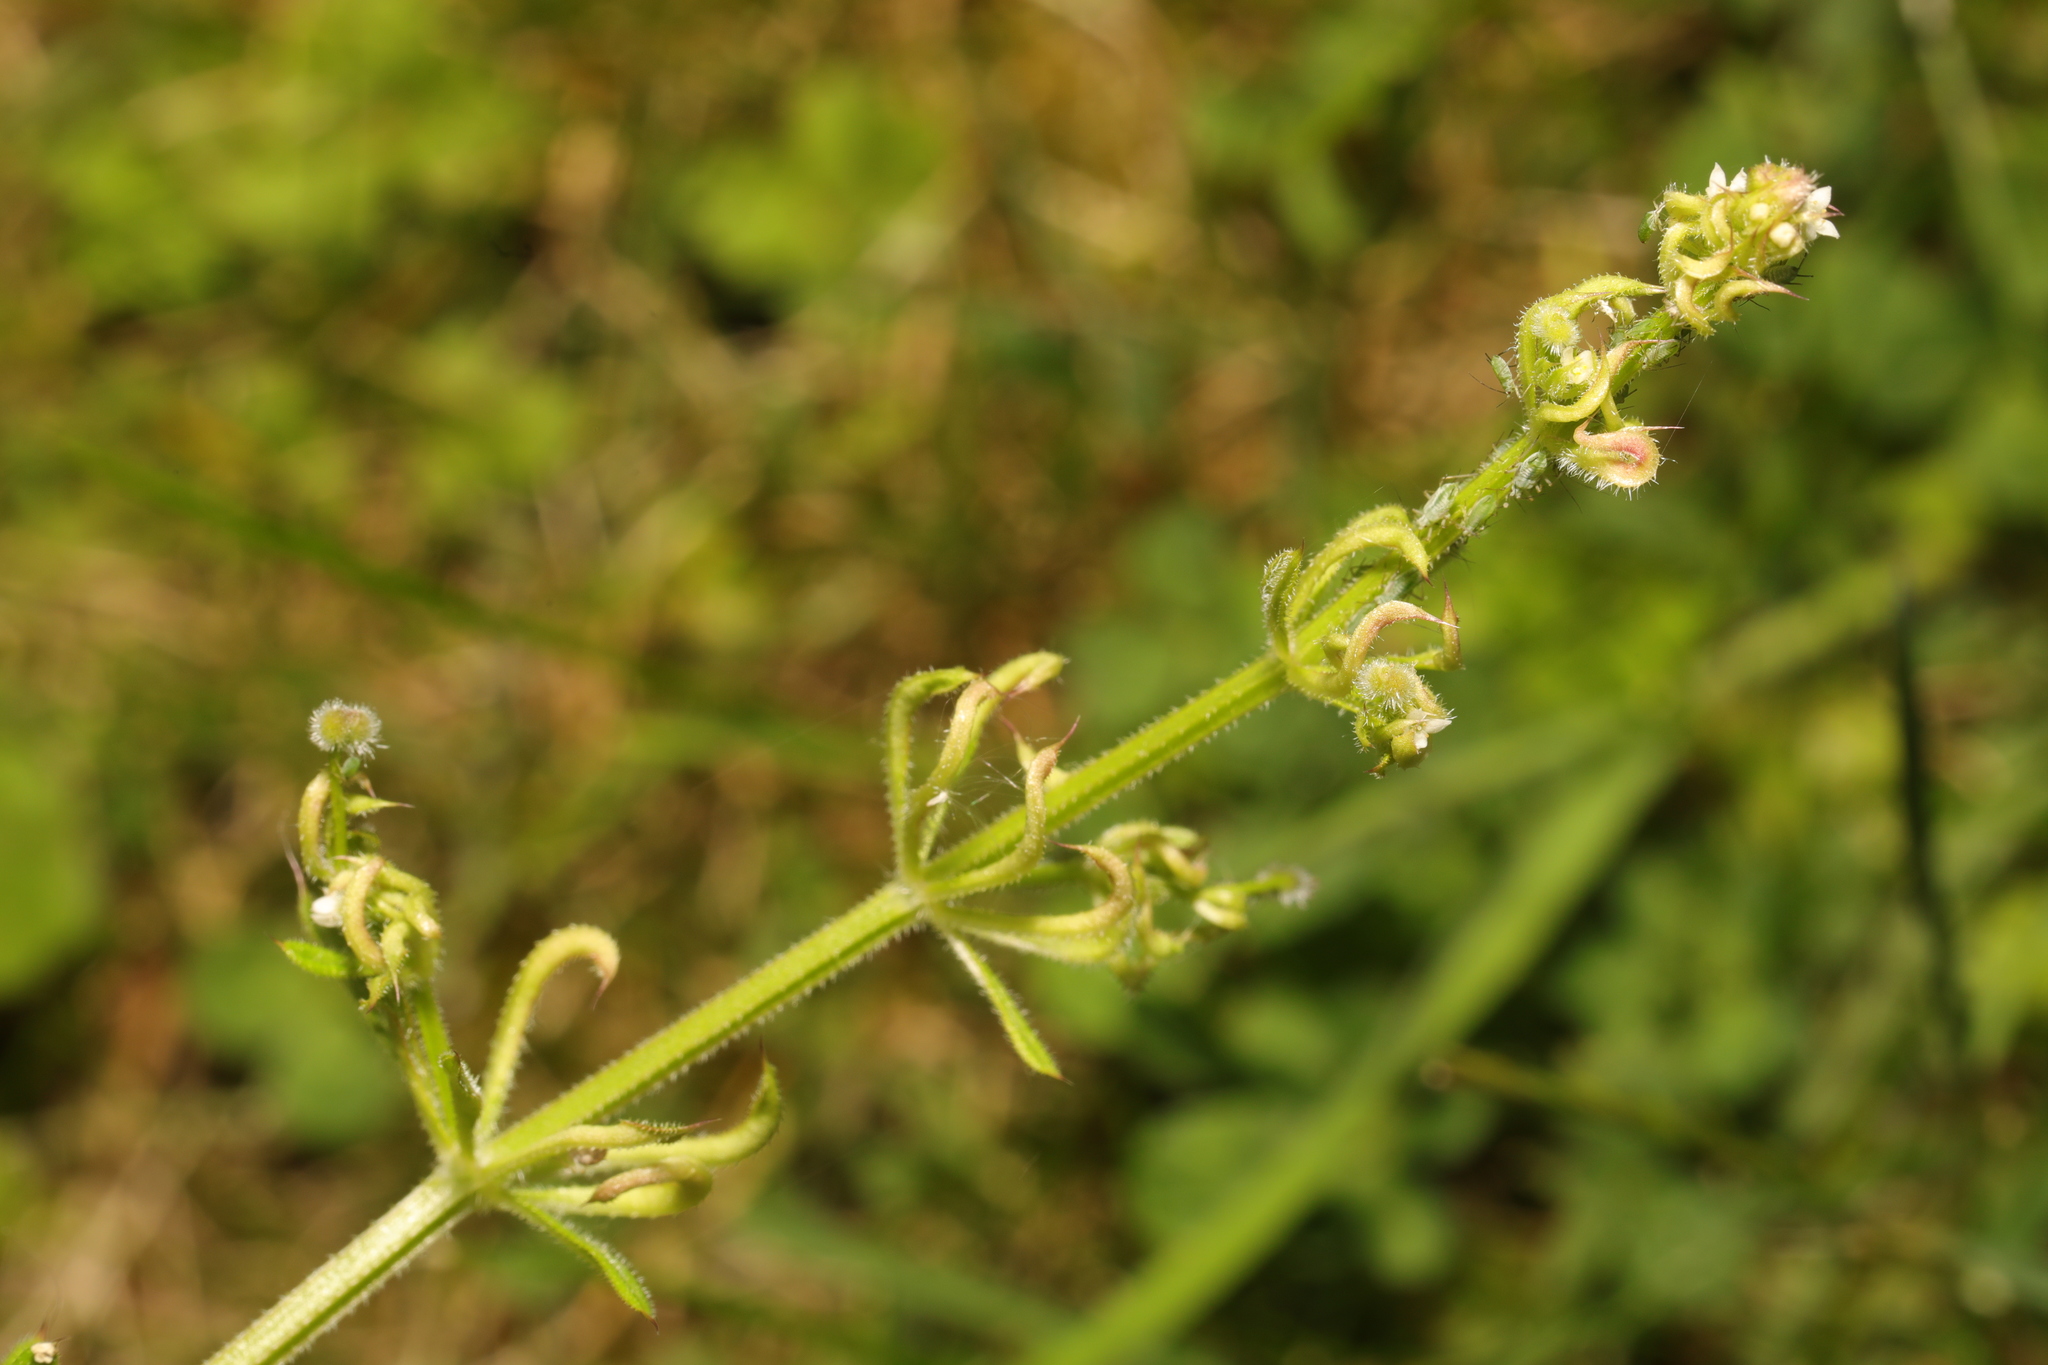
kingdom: Animalia
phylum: Arthropoda
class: Arachnida
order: Trombidiformes
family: Eriophyidae
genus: Cecidophyes
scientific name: Cecidophyes rouhollahi
